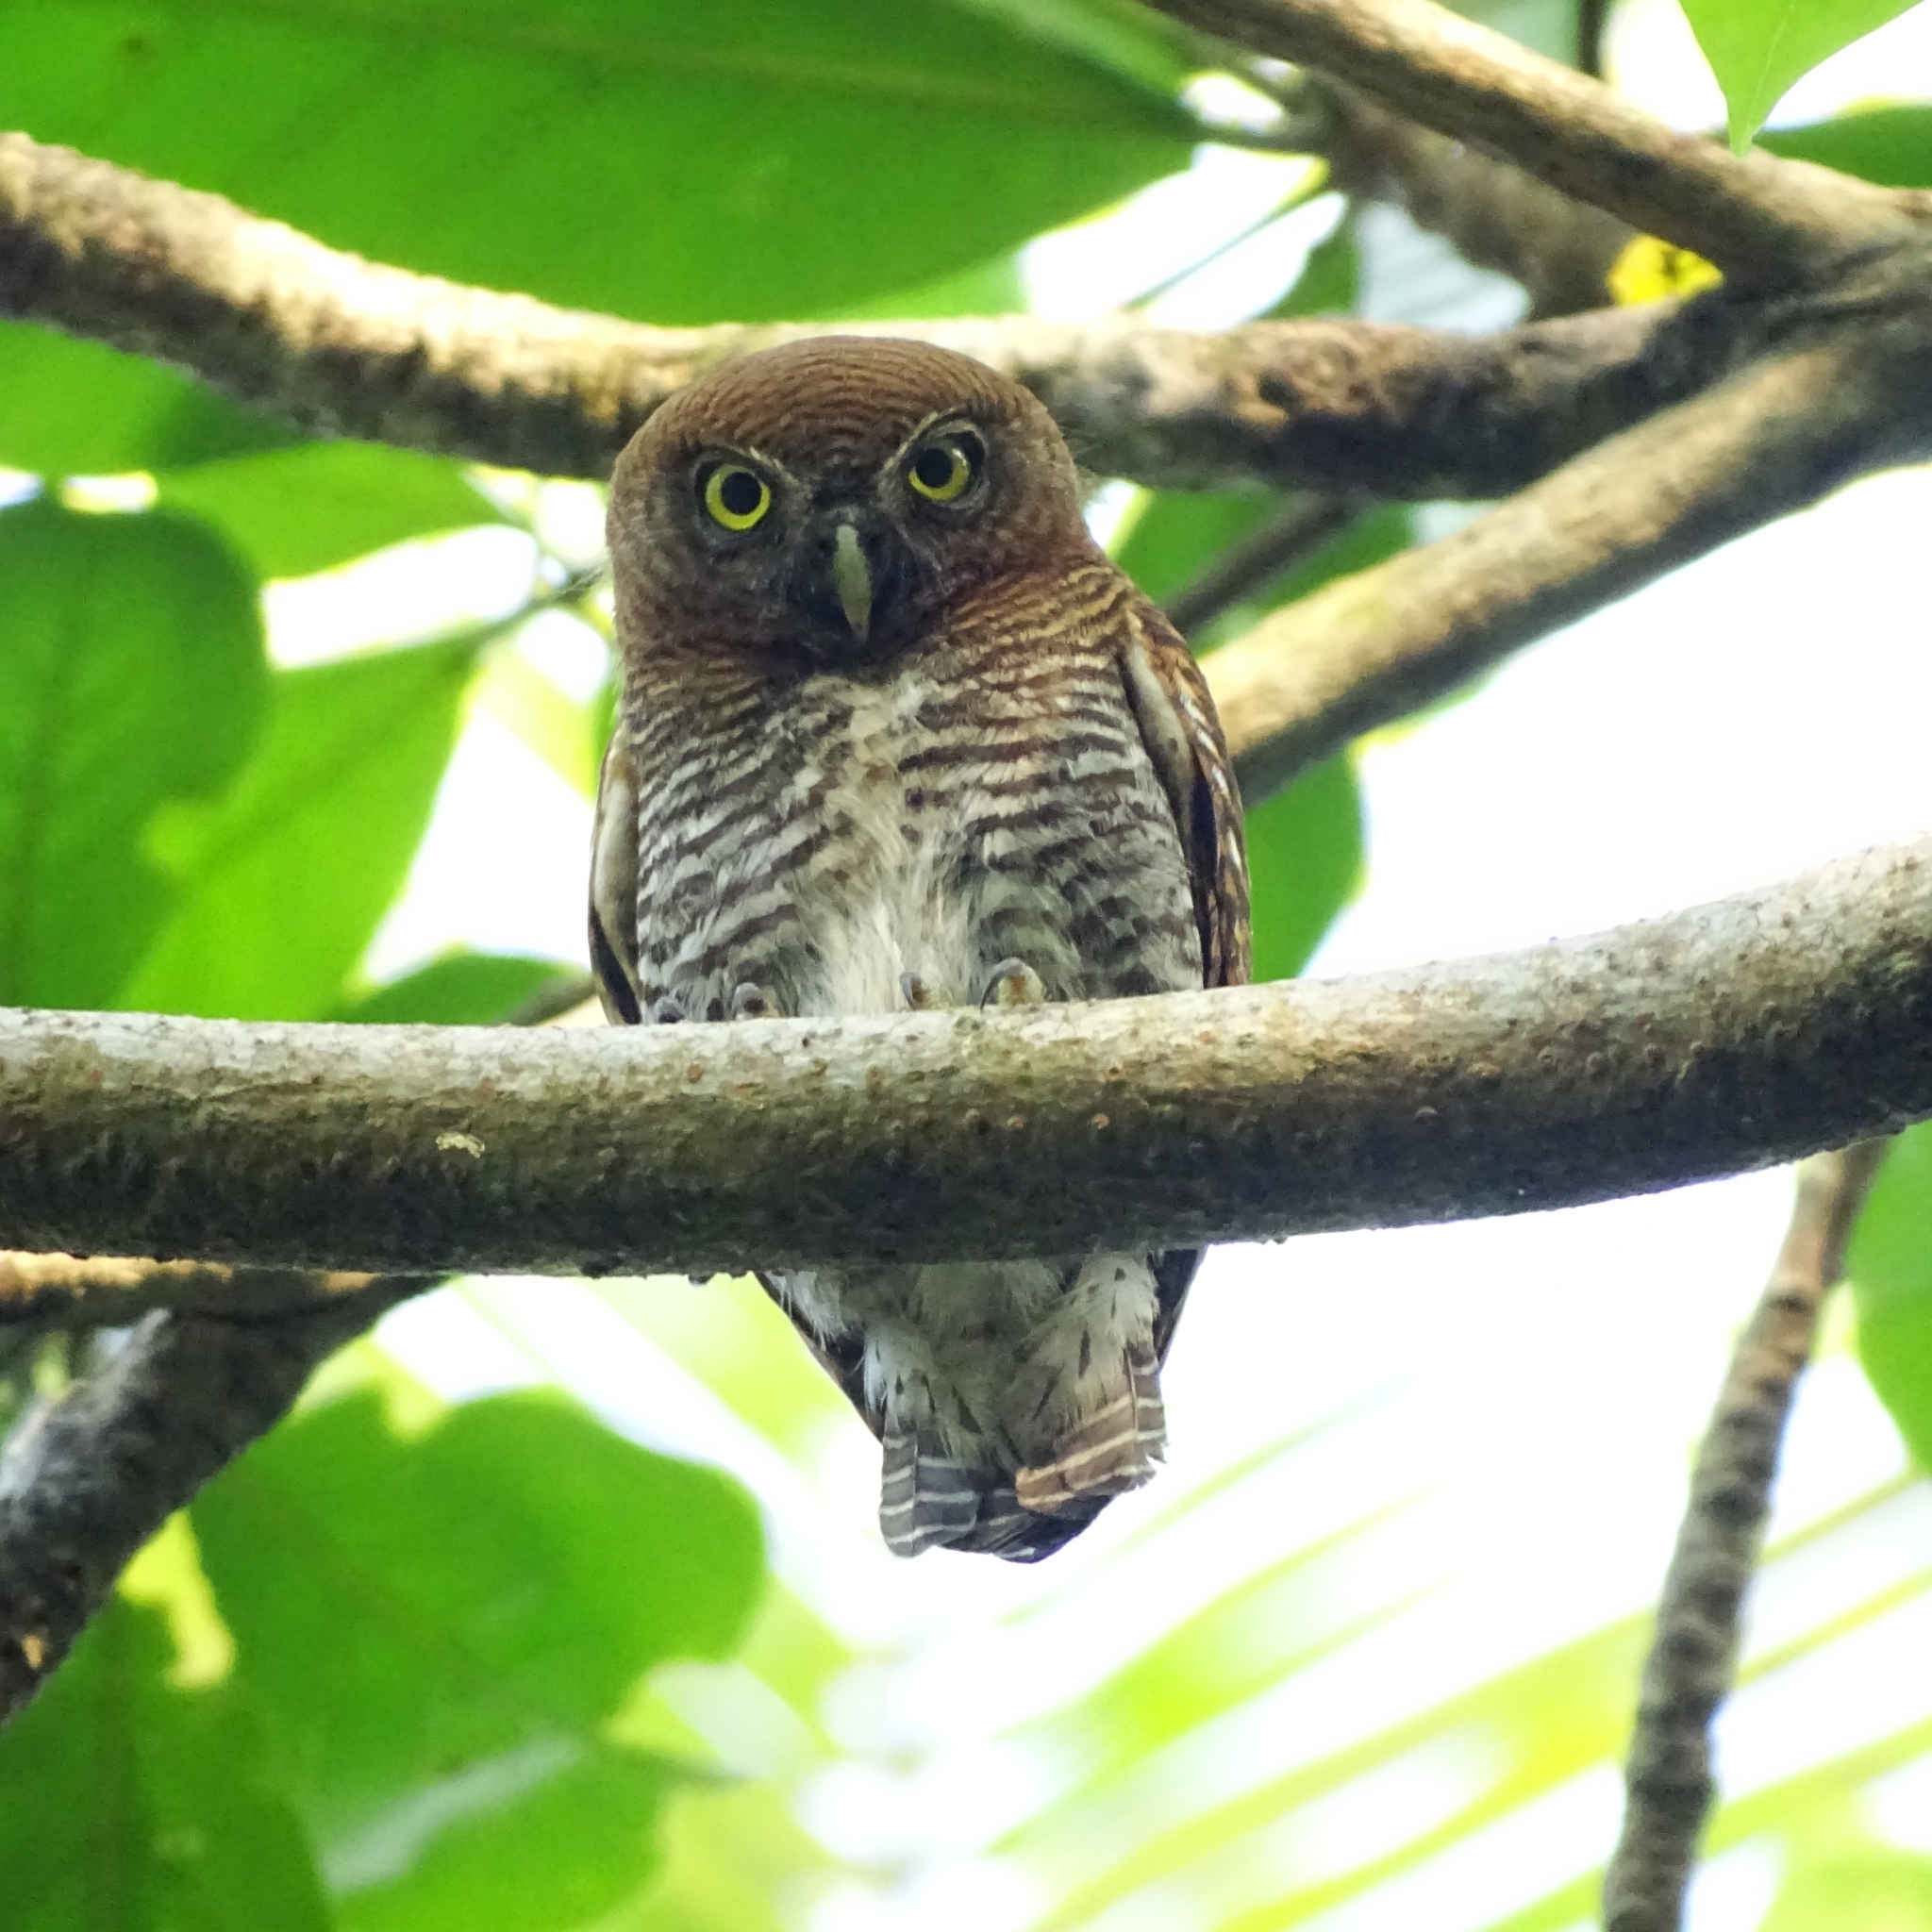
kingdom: Animalia
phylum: Chordata
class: Aves
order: Strigiformes
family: Strigidae
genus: Glaucidium
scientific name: Glaucidium radiatum
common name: Jungle owlet
